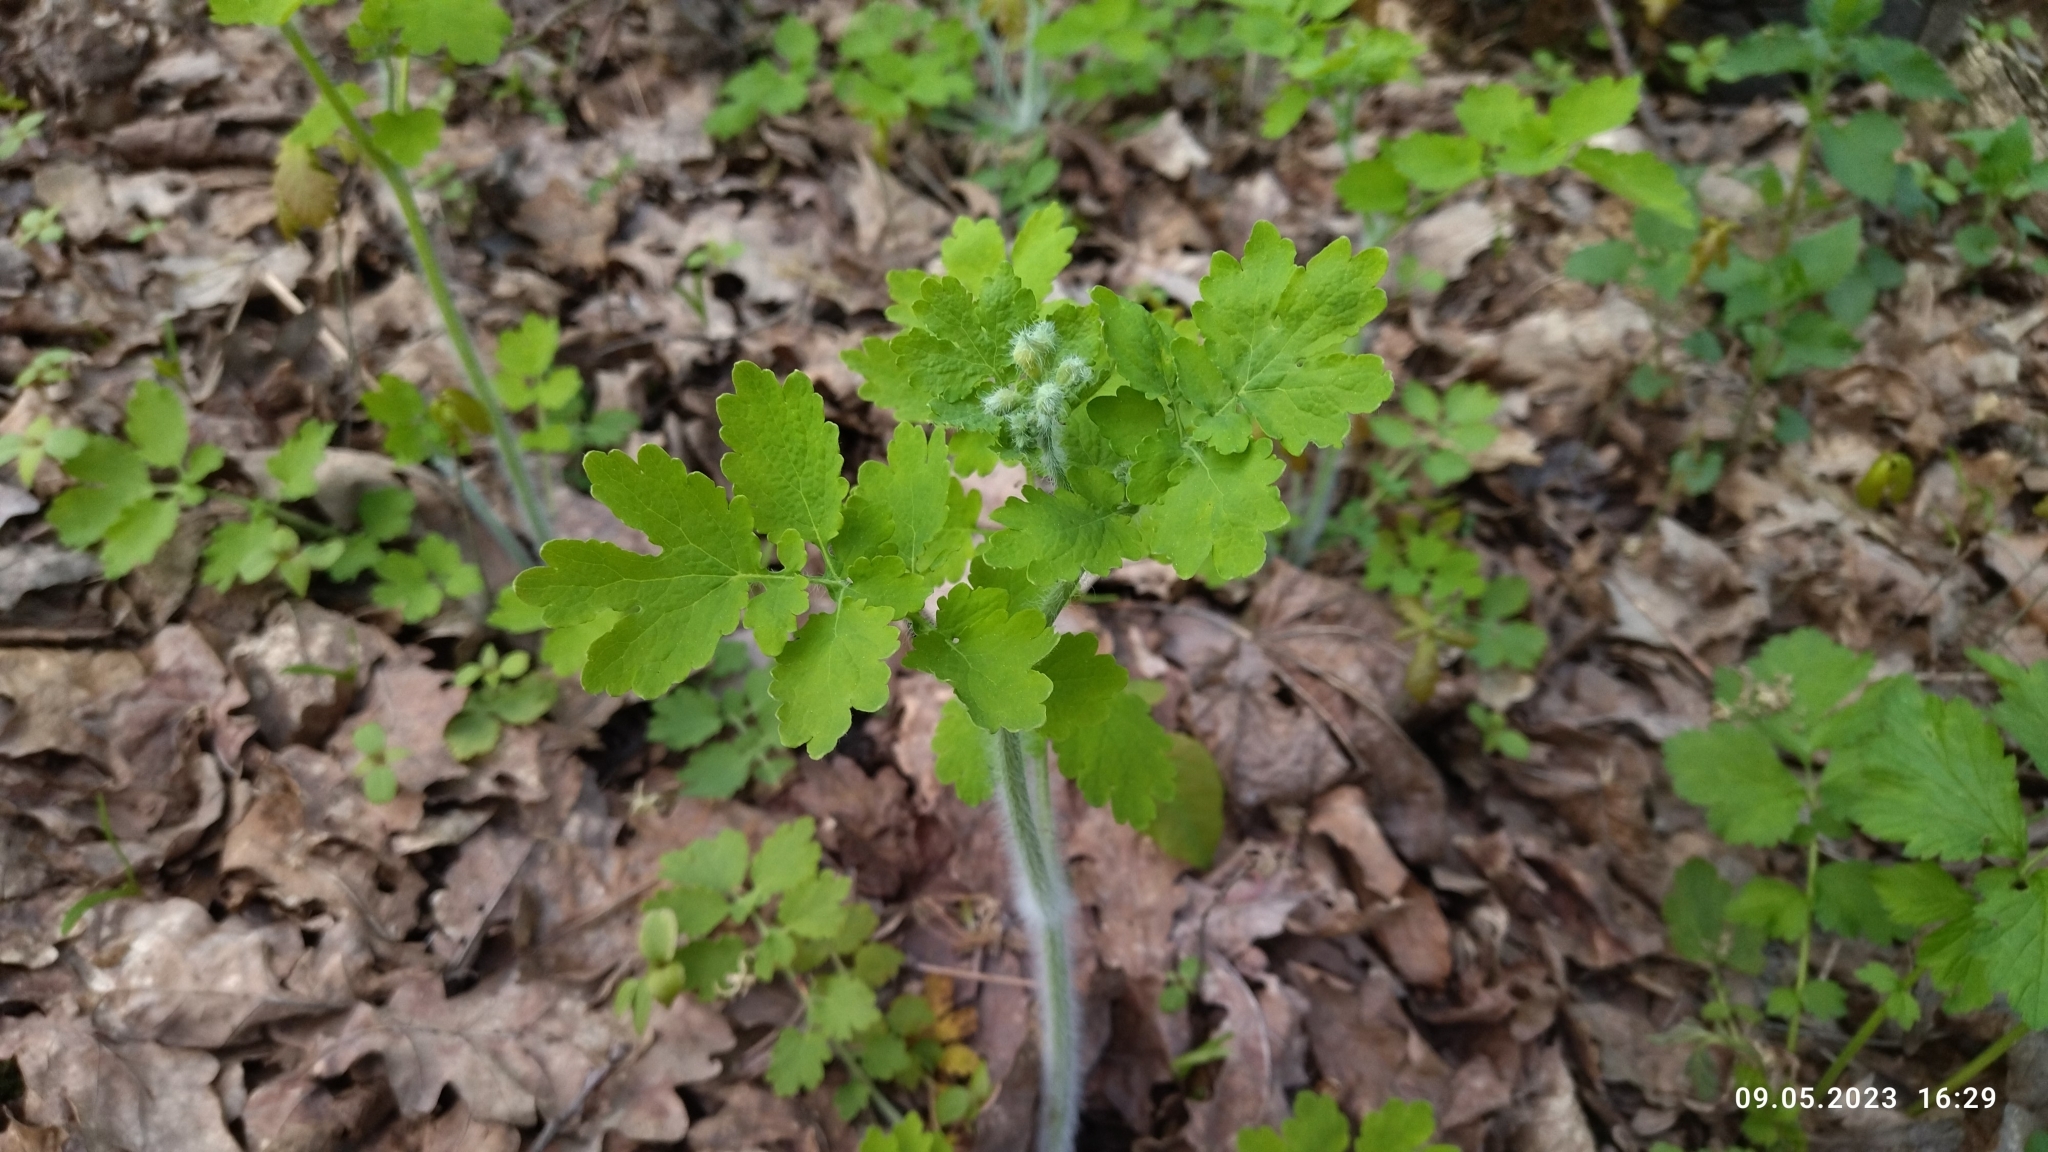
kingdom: Plantae
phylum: Tracheophyta
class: Magnoliopsida
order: Ranunculales
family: Papaveraceae
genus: Chelidonium
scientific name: Chelidonium majus
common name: Greater celandine
